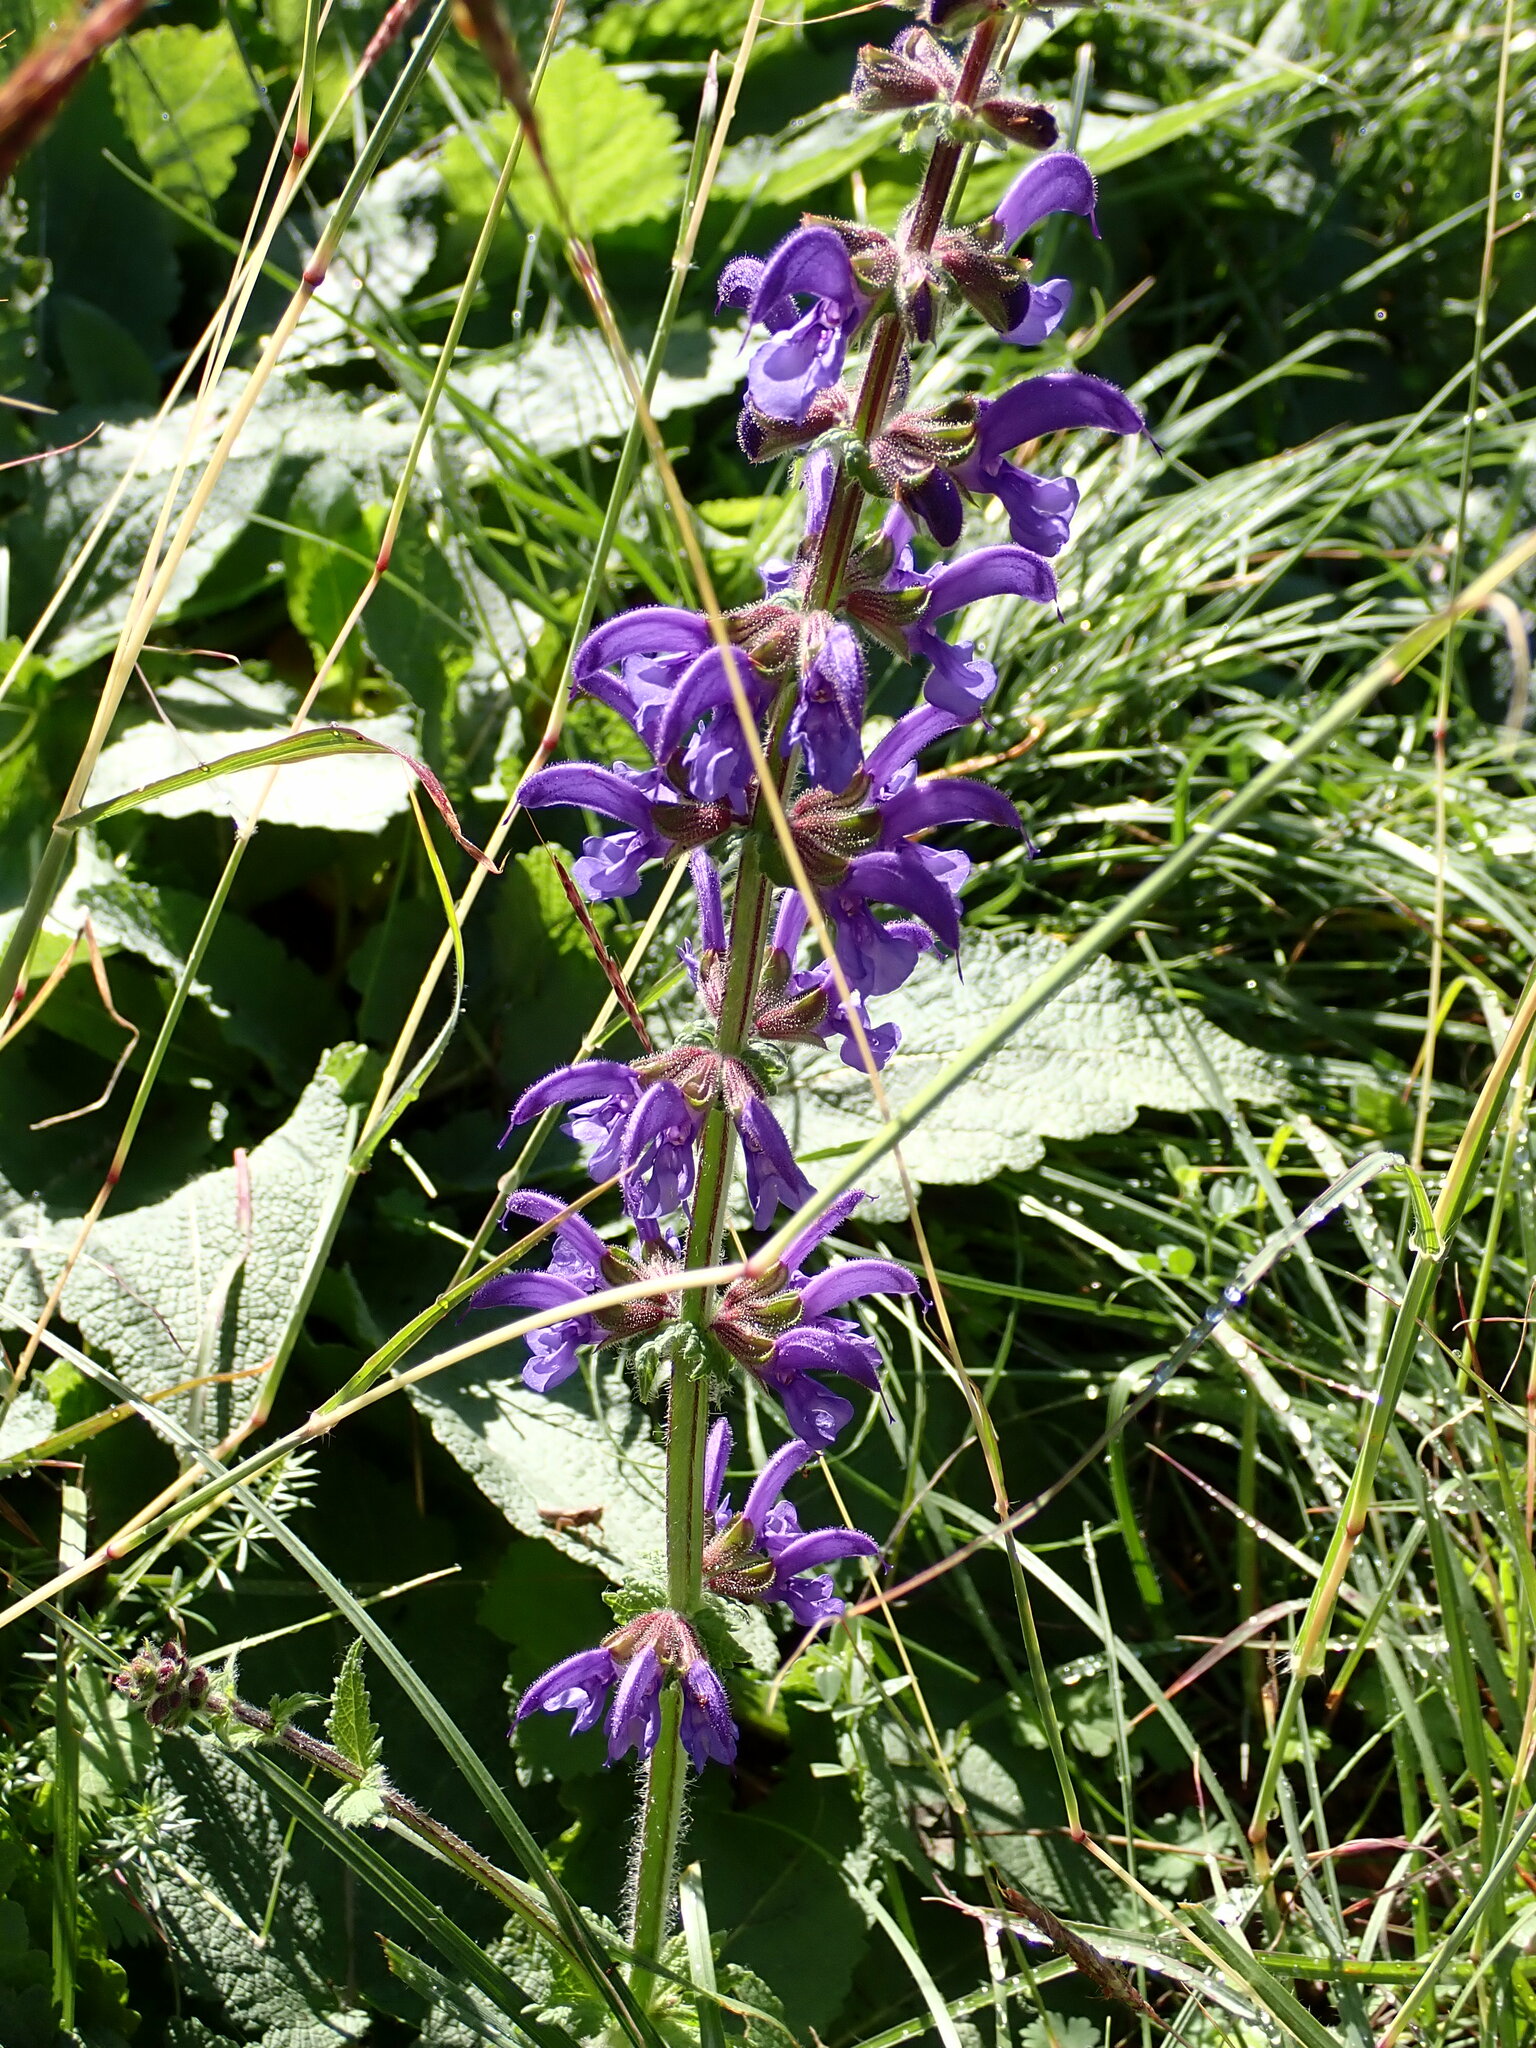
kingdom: Plantae
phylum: Tracheophyta
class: Magnoliopsida
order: Lamiales
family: Lamiaceae
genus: Salvia
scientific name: Salvia pratensis
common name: Meadow sage
